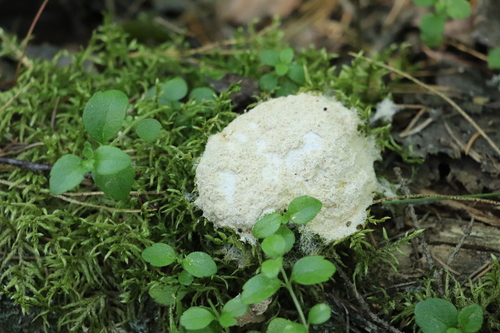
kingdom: Protozoa
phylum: Mycetozoa
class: Myxomycetes
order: Physarales
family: Physaraceae
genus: Fuligo
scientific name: Fuligo septica
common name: Dog vomit slime mold
